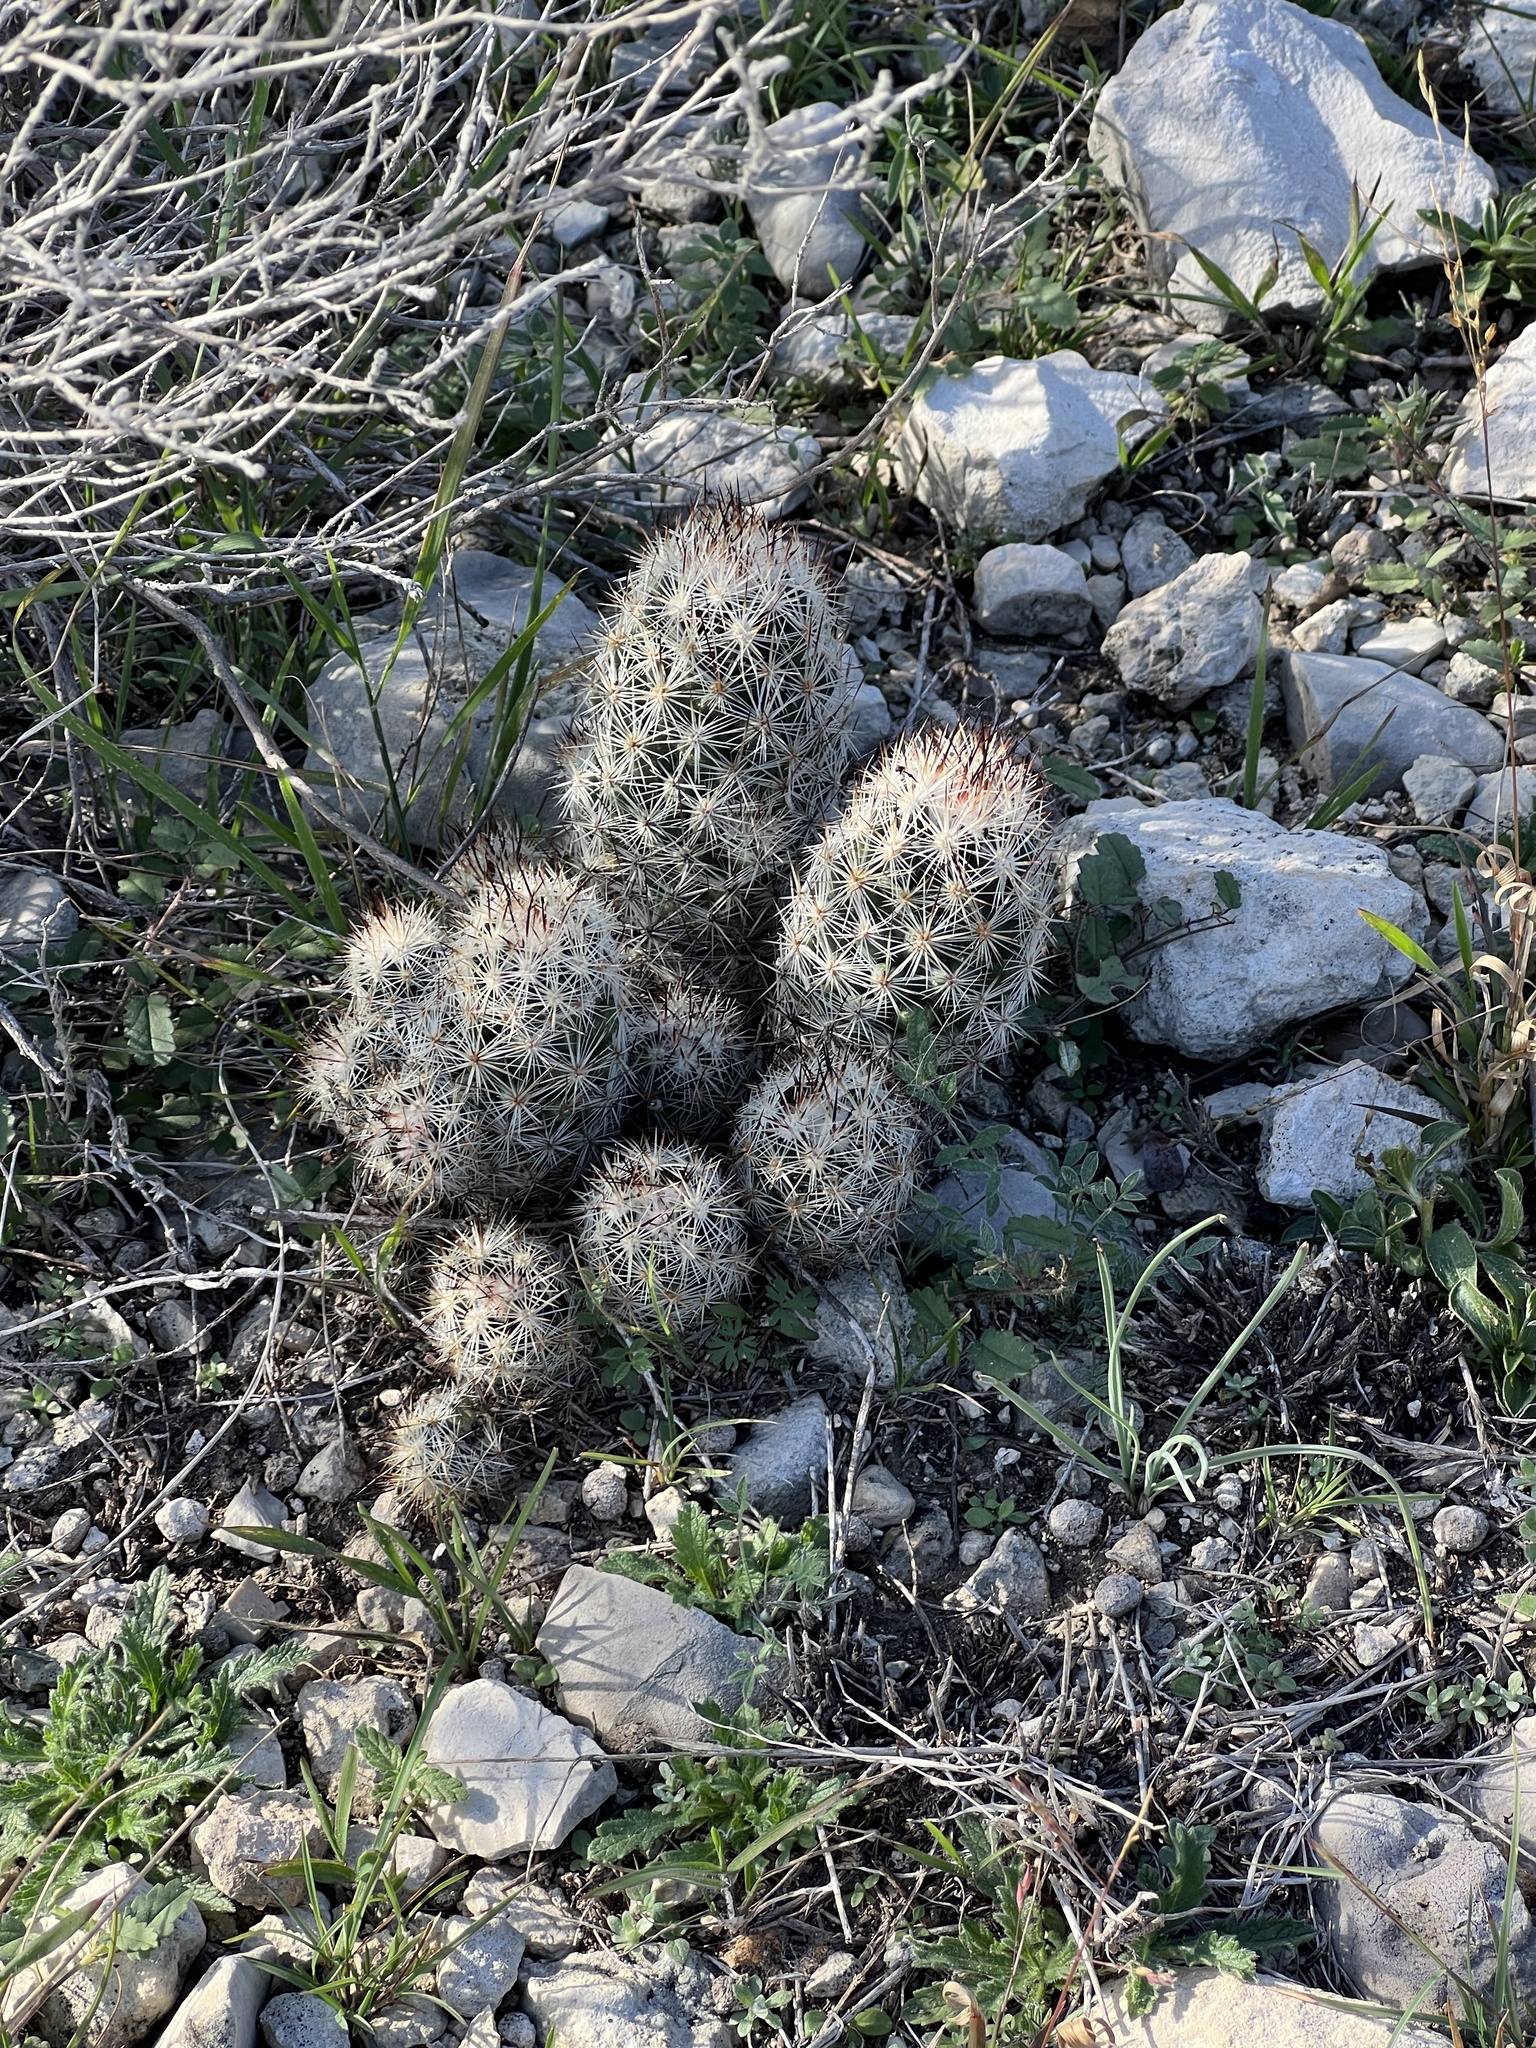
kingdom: Plantae
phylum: Tracheophyta
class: Magnoliopsida
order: Caryophyllales
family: Cactaceae
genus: Pelecyphora
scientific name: Pelecyphora emskoetteriana
